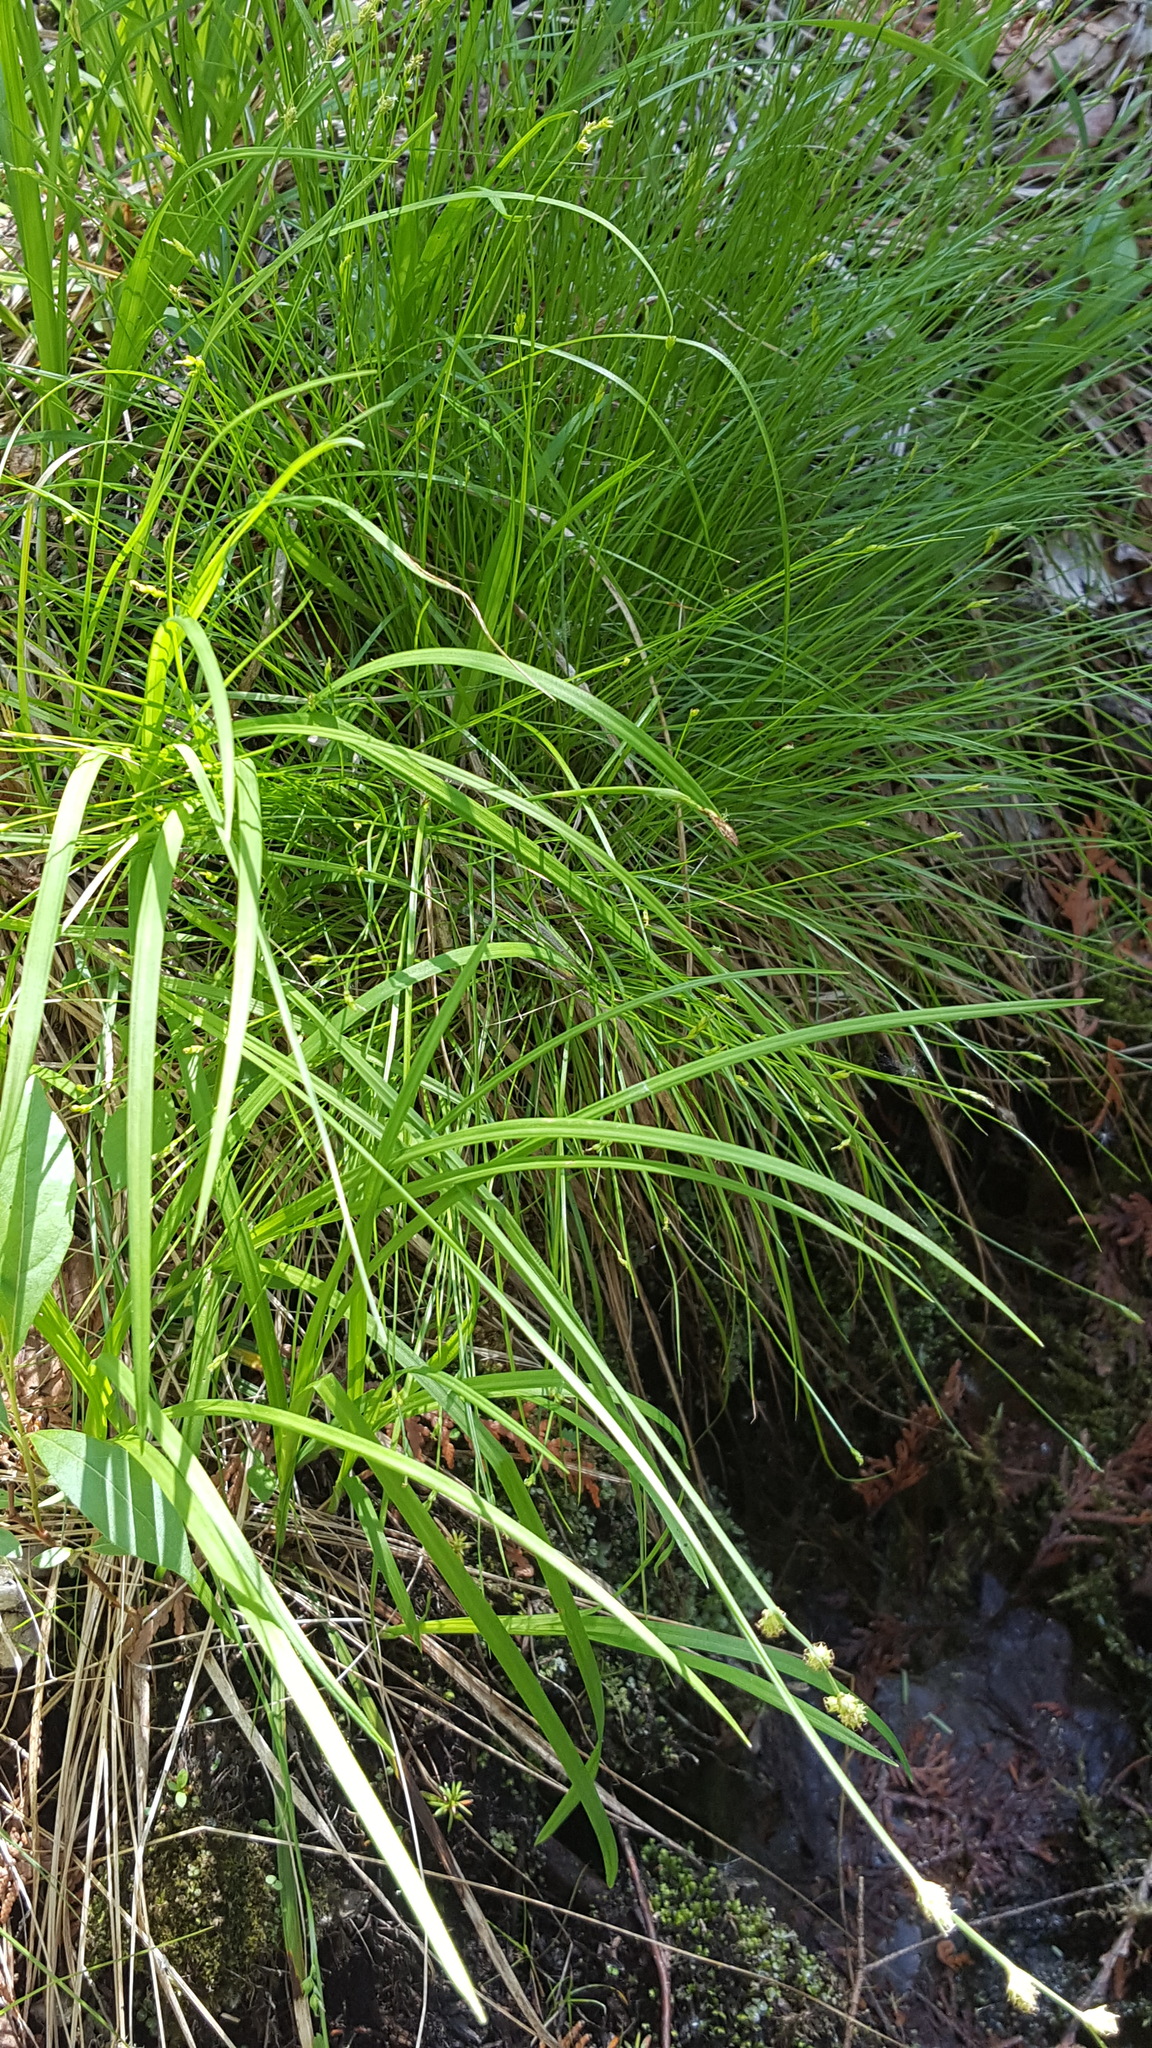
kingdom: Plantae
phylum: Tracheophyta
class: Liliopsida
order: Poales
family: Cyperaceae
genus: Carex
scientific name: Carex brunnescens
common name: Brown sedge
